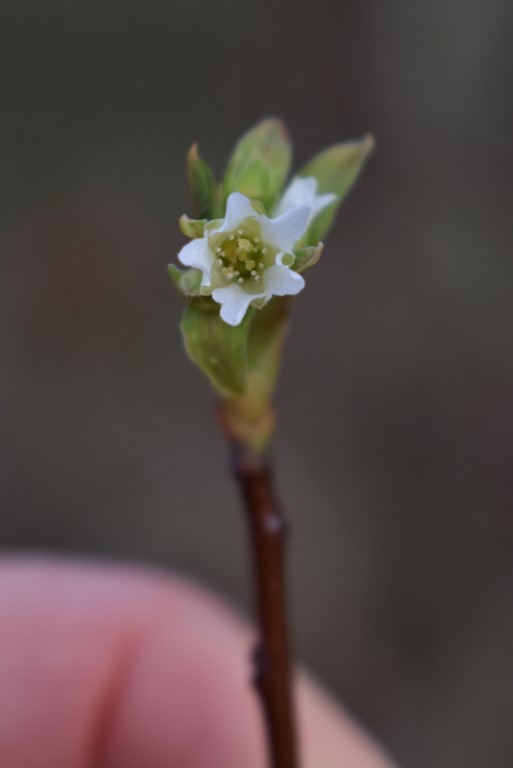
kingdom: Plantae
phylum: Tracheophyta
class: Magnoliopsida
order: Rosales
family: Rosaceae
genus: Oemleria
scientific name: Oemleria cerasiformis
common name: Osoberry
